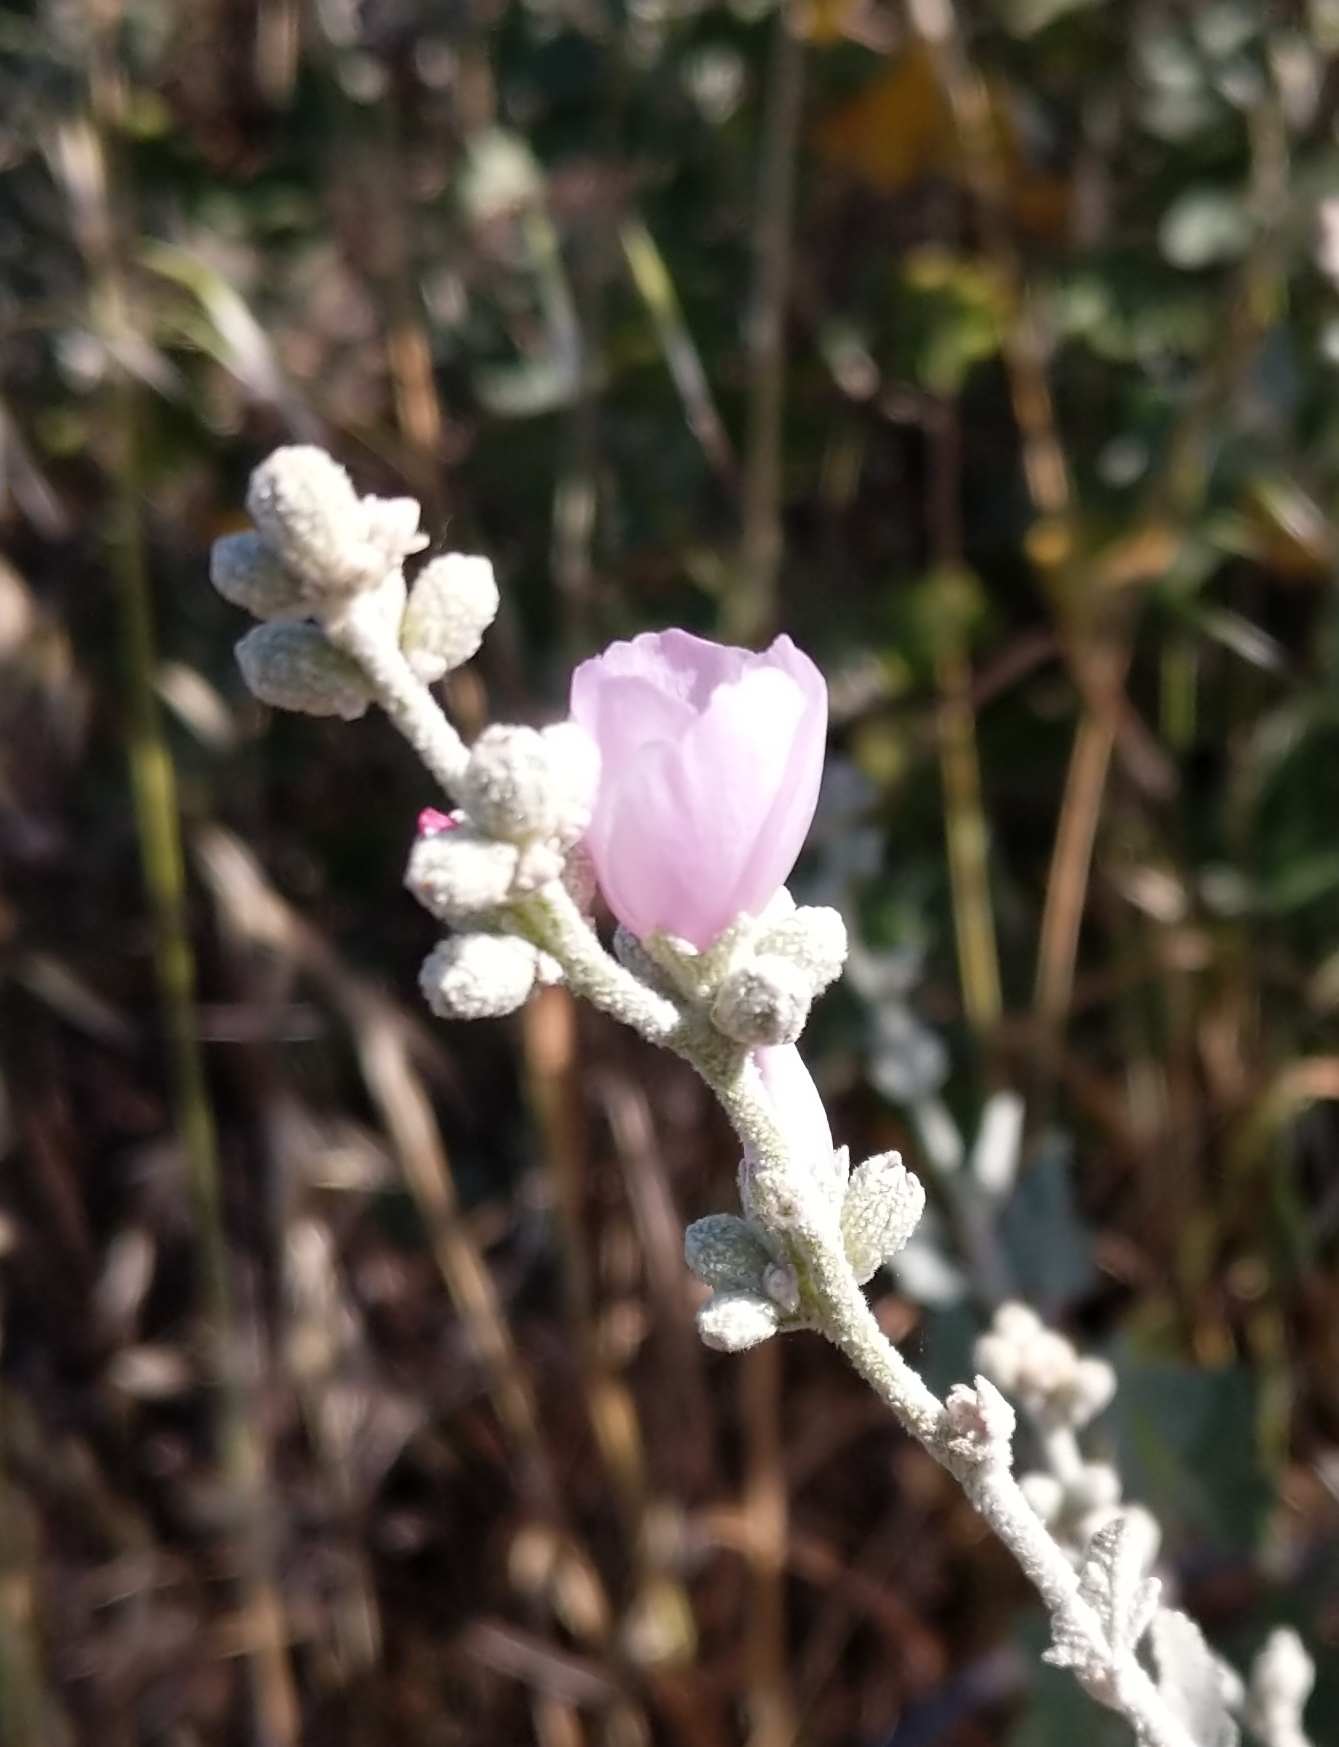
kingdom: Plantae
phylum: Tracheophyta
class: Magnoliopsida
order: Malvales
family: Malvaceae
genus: Malacothamnus
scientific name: Malacothamnus fasciculatus
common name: Sant cruz island bush-mallow
